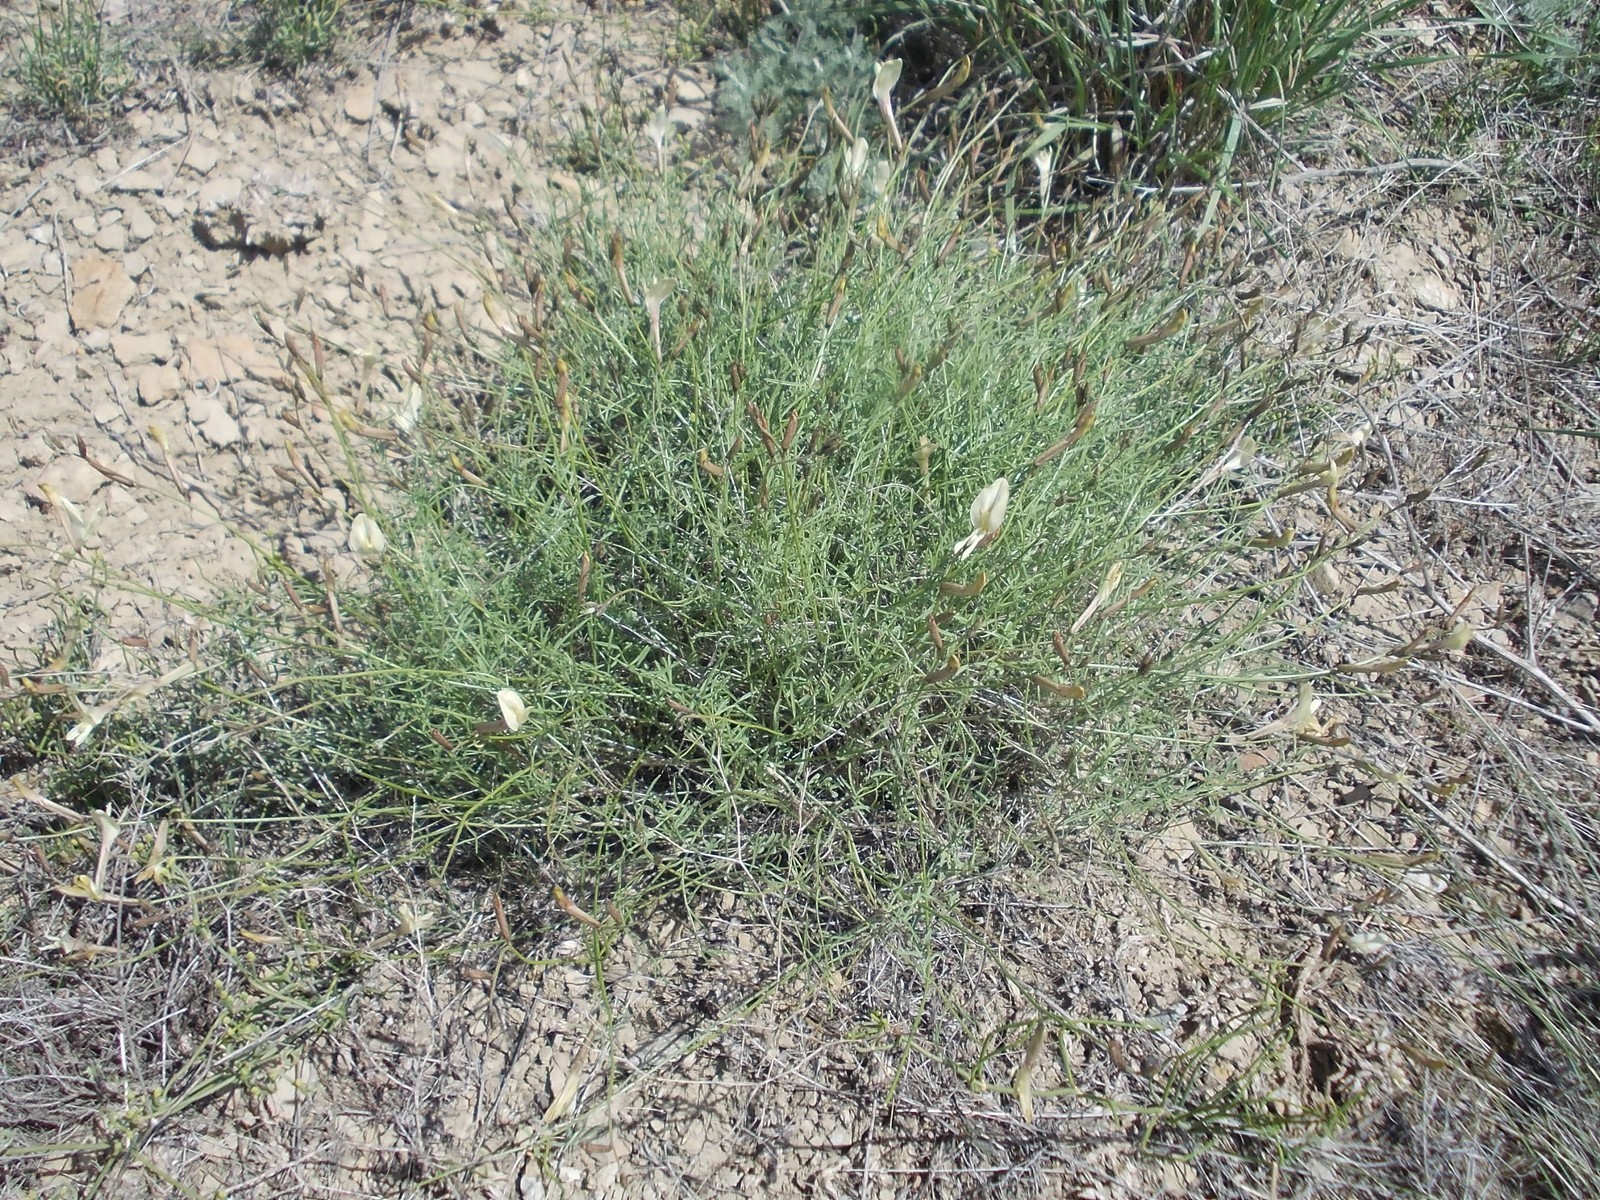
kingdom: Plantae
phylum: Tracheophyta
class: Magnoliopsida
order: Fabales
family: Fabaceae
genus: Astragalus
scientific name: Astragalus ucrainicus
